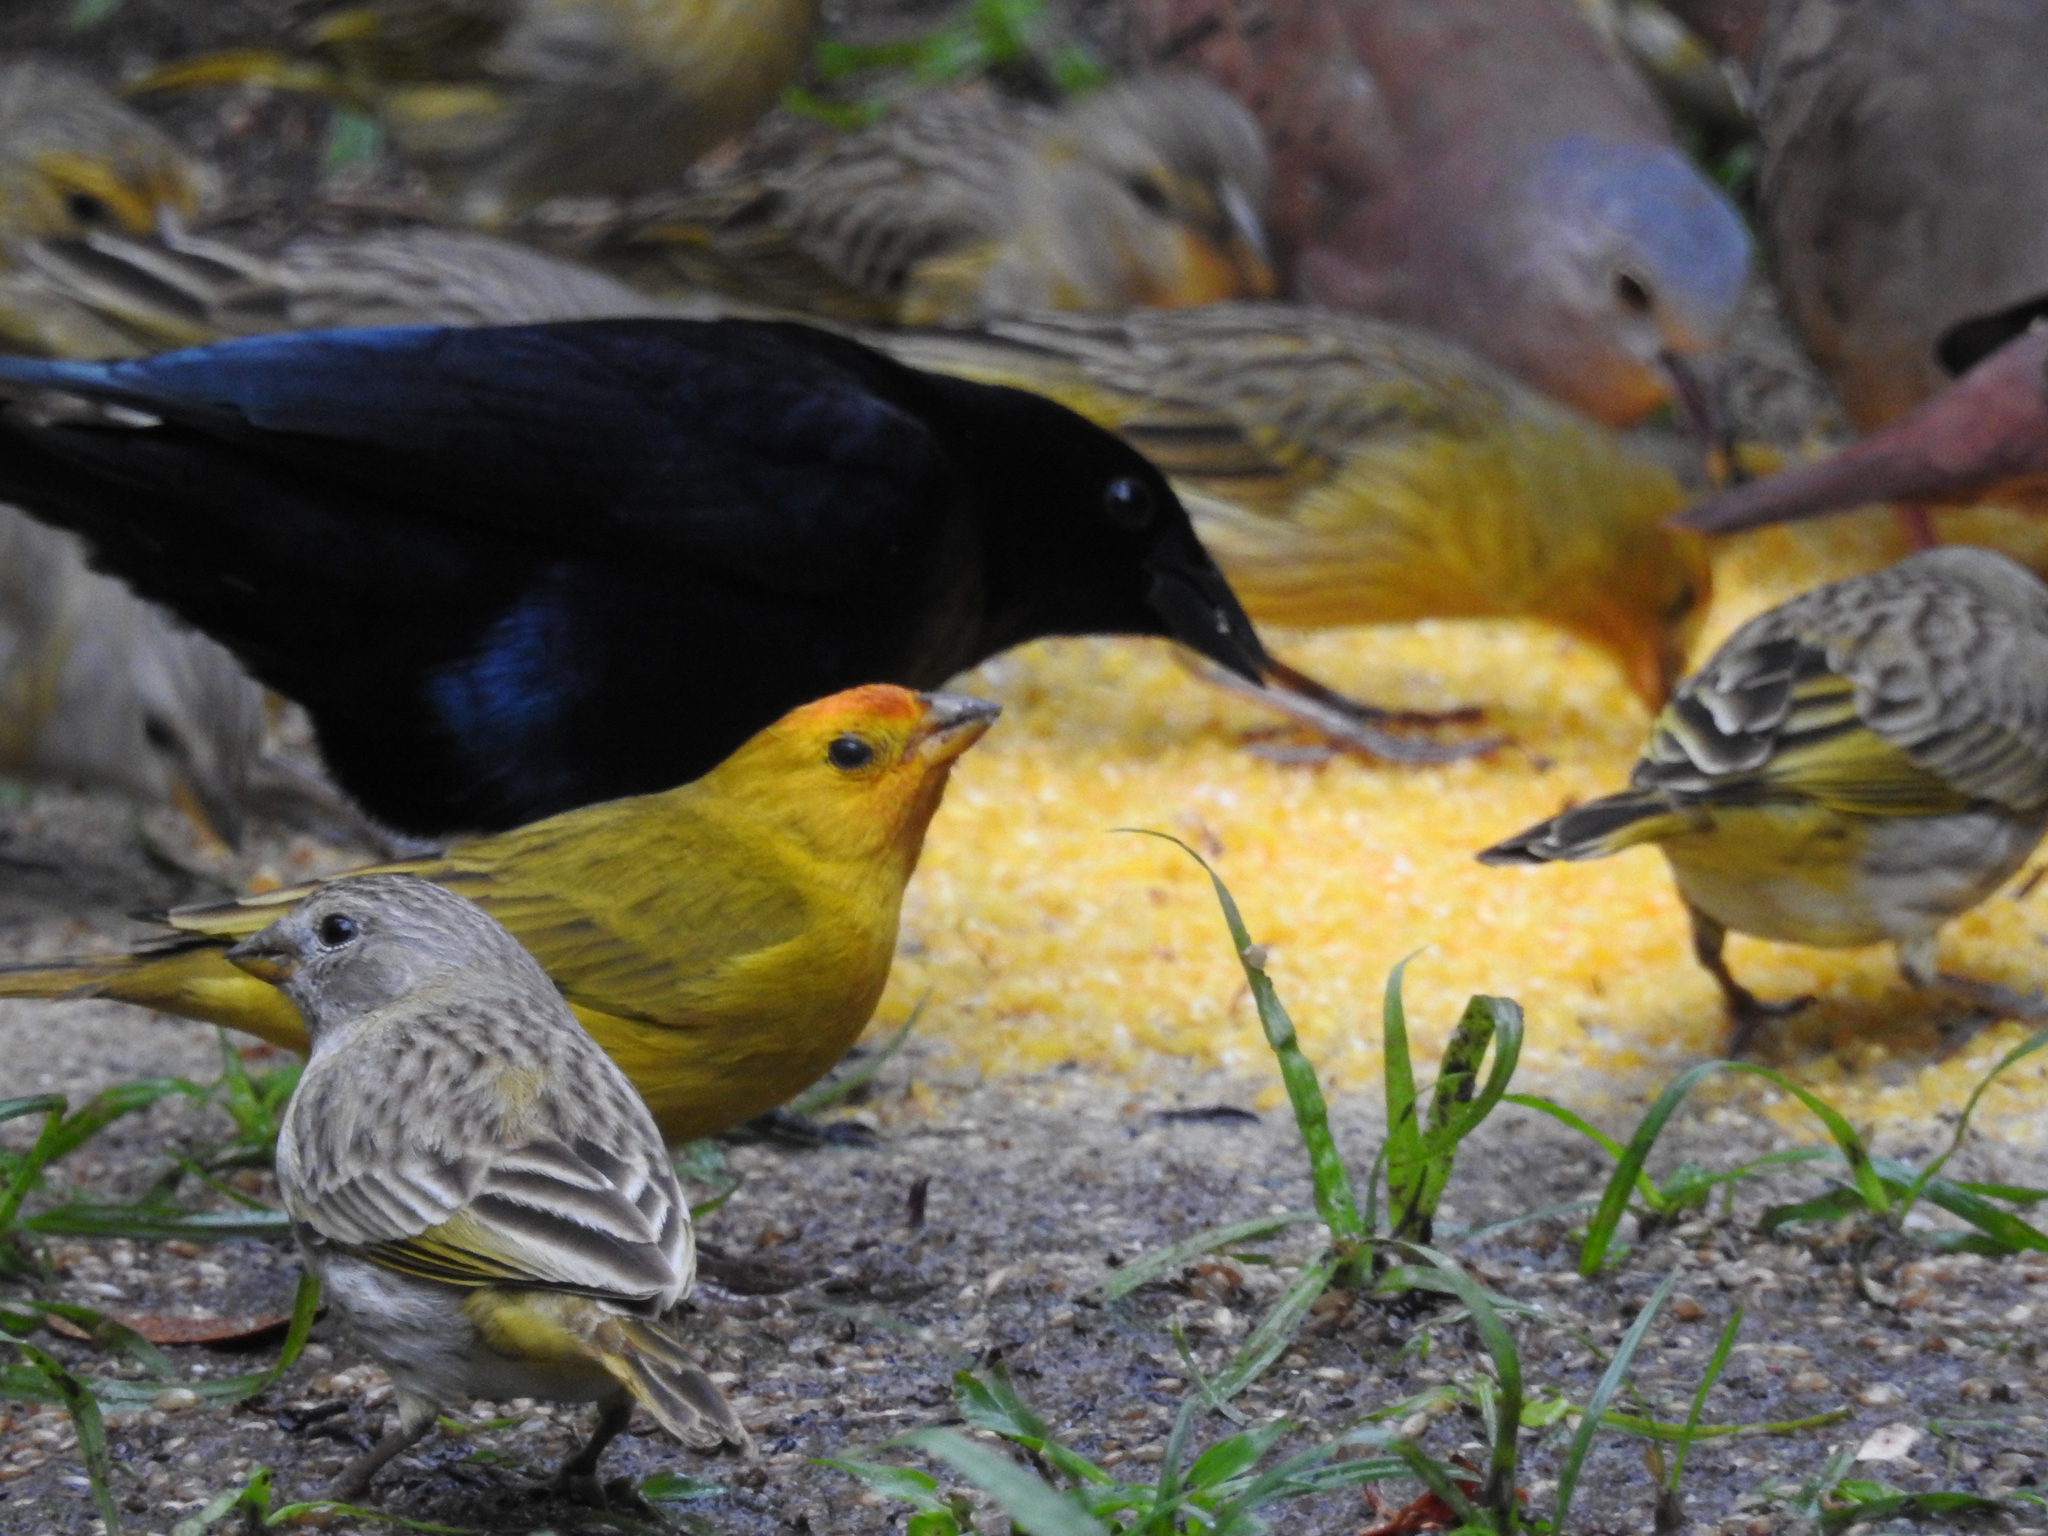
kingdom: Animalia
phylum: Chordata
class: Aves
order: Passeriformes
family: Thraupidae
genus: Sicalis
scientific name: Sicalis flaveola
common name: Saffron finch
